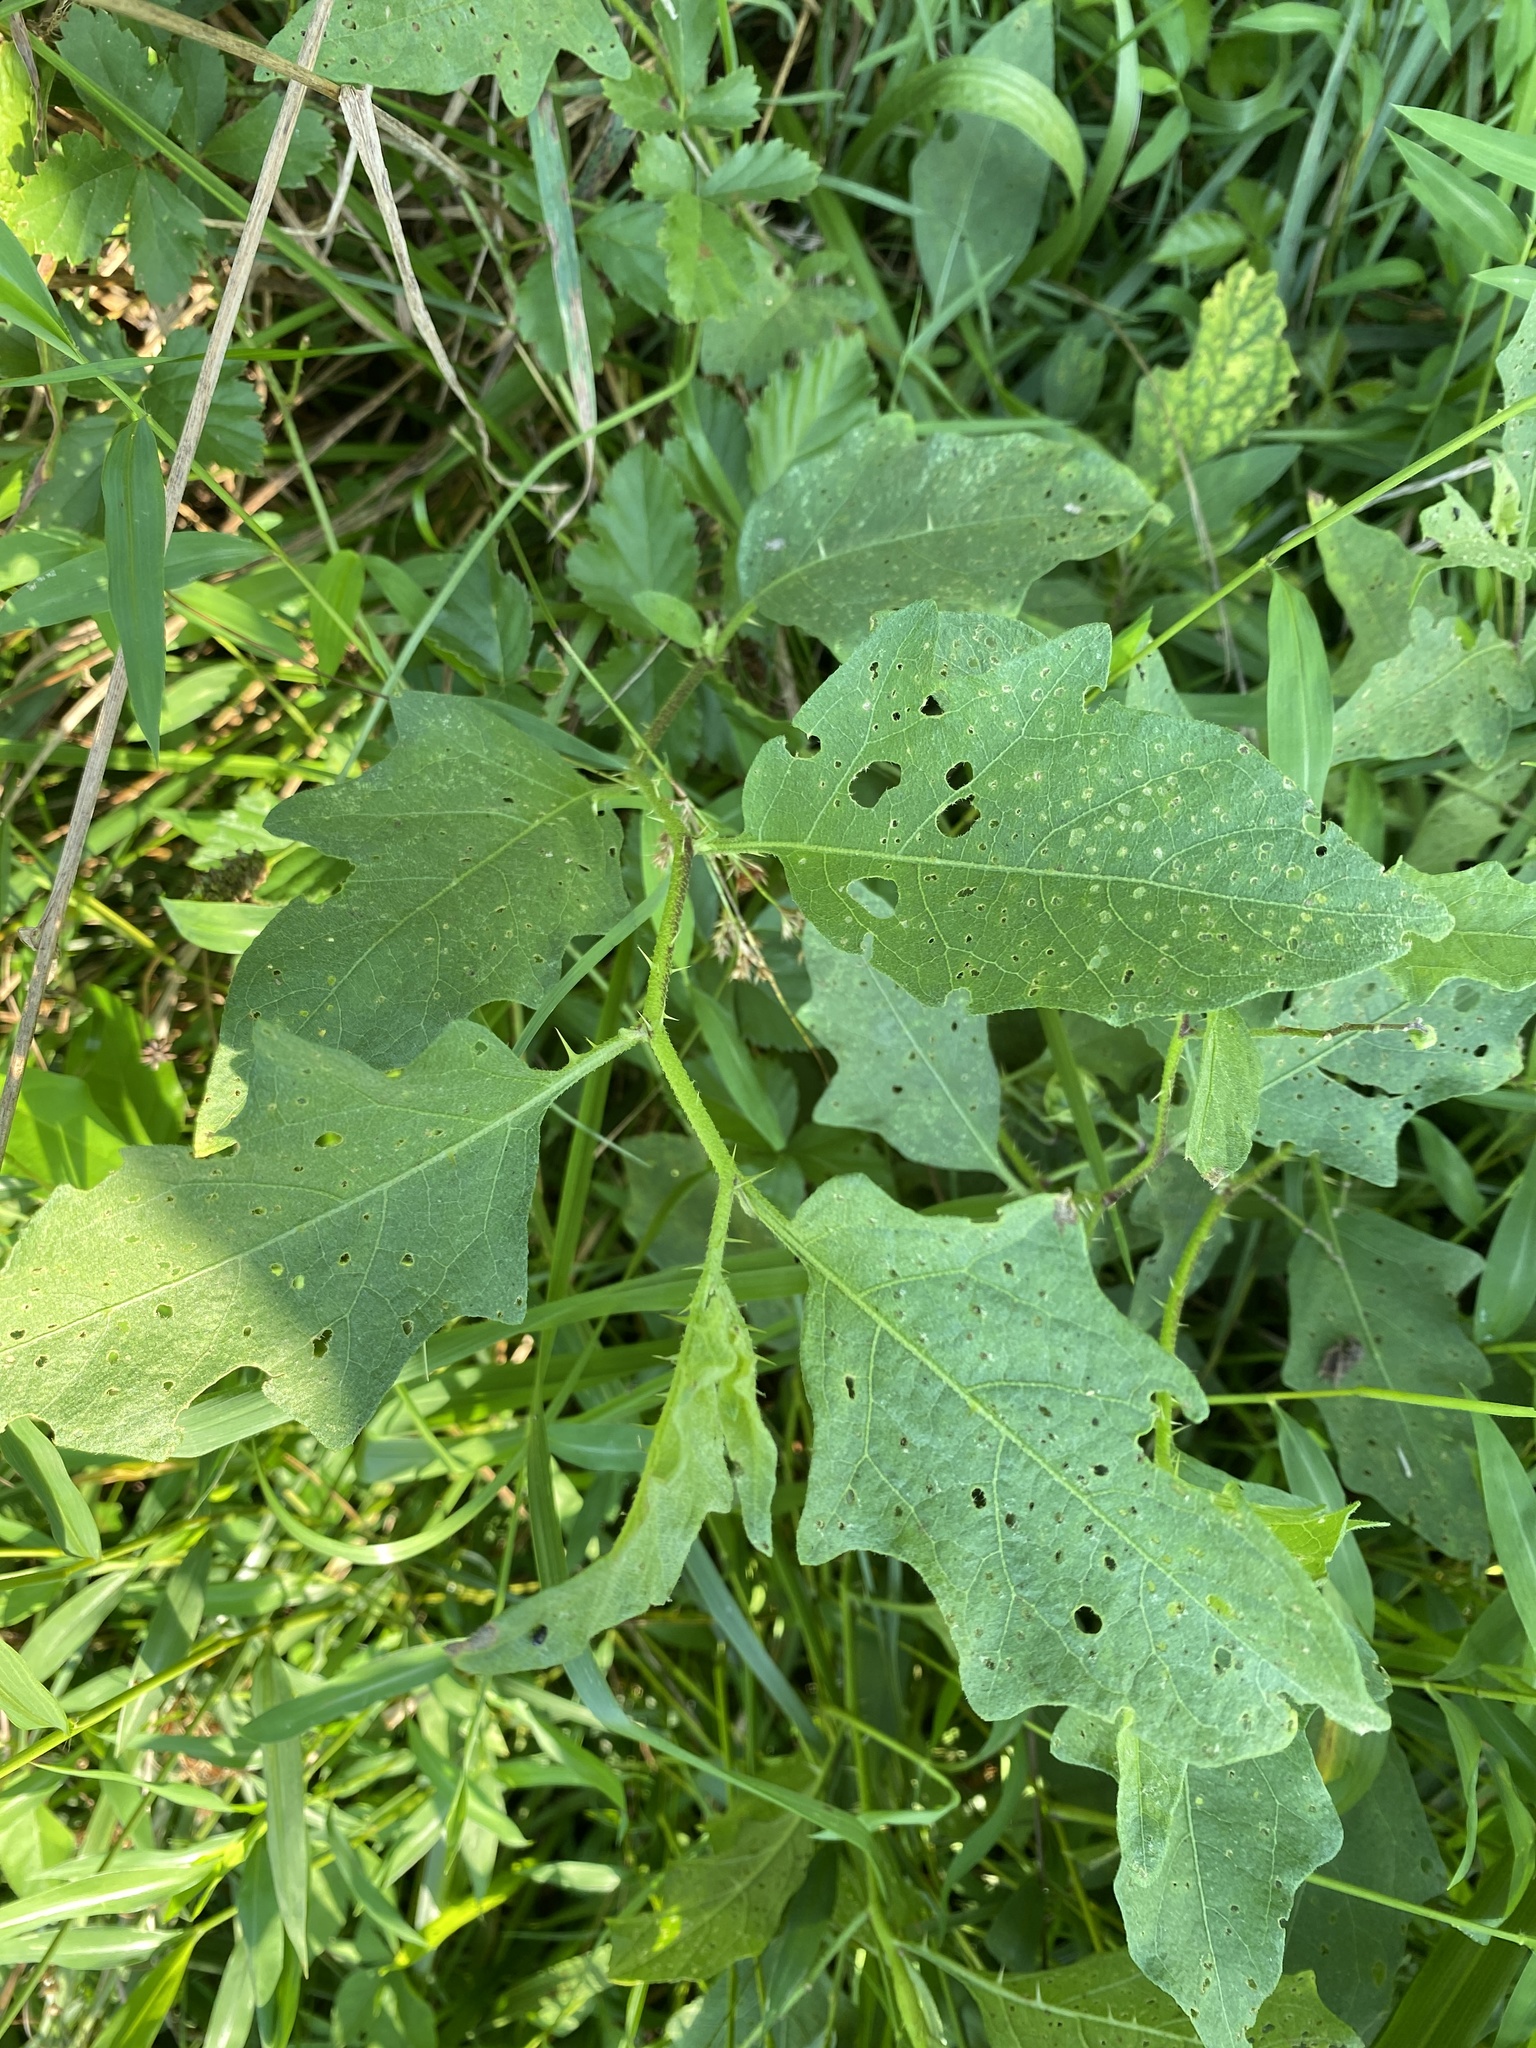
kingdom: Plantae
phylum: Tracheophyta
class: Magnoliopsida
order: Solanales
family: Solanaceae
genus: Solanum
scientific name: Solanum carolinense
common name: Horse-nettle
